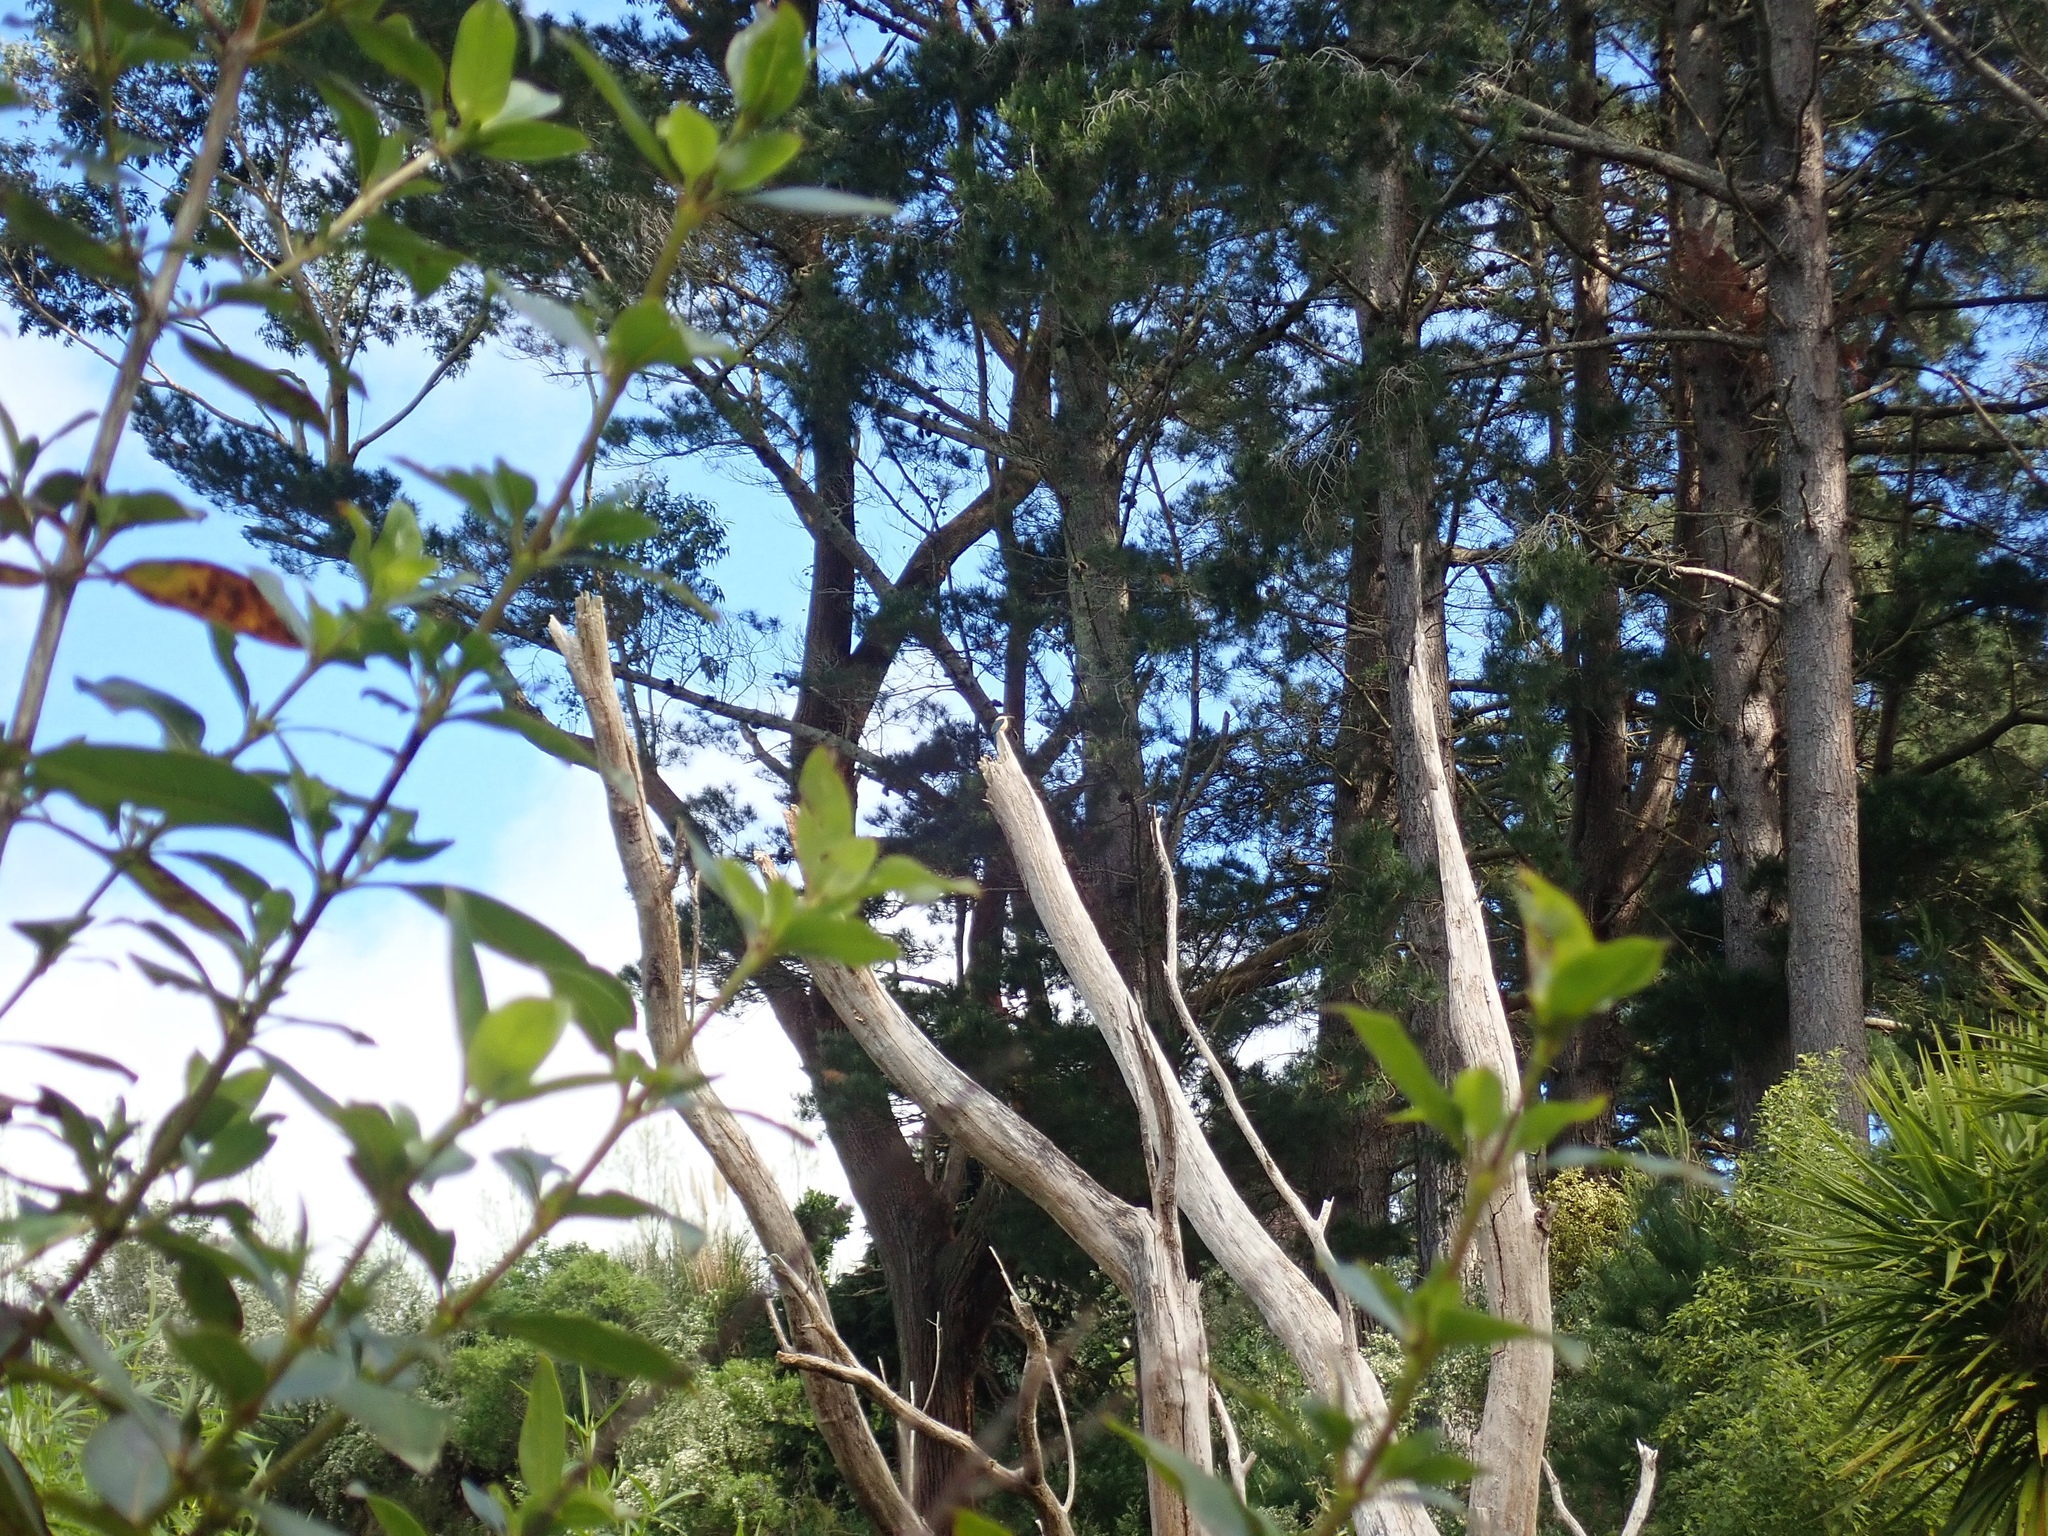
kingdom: Animalia
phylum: Chordata
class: Aves
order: Coraciiformes
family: Alcedinidae
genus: Todiramphus
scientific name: Todiramphus sanctus
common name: Sacred kingfisher
